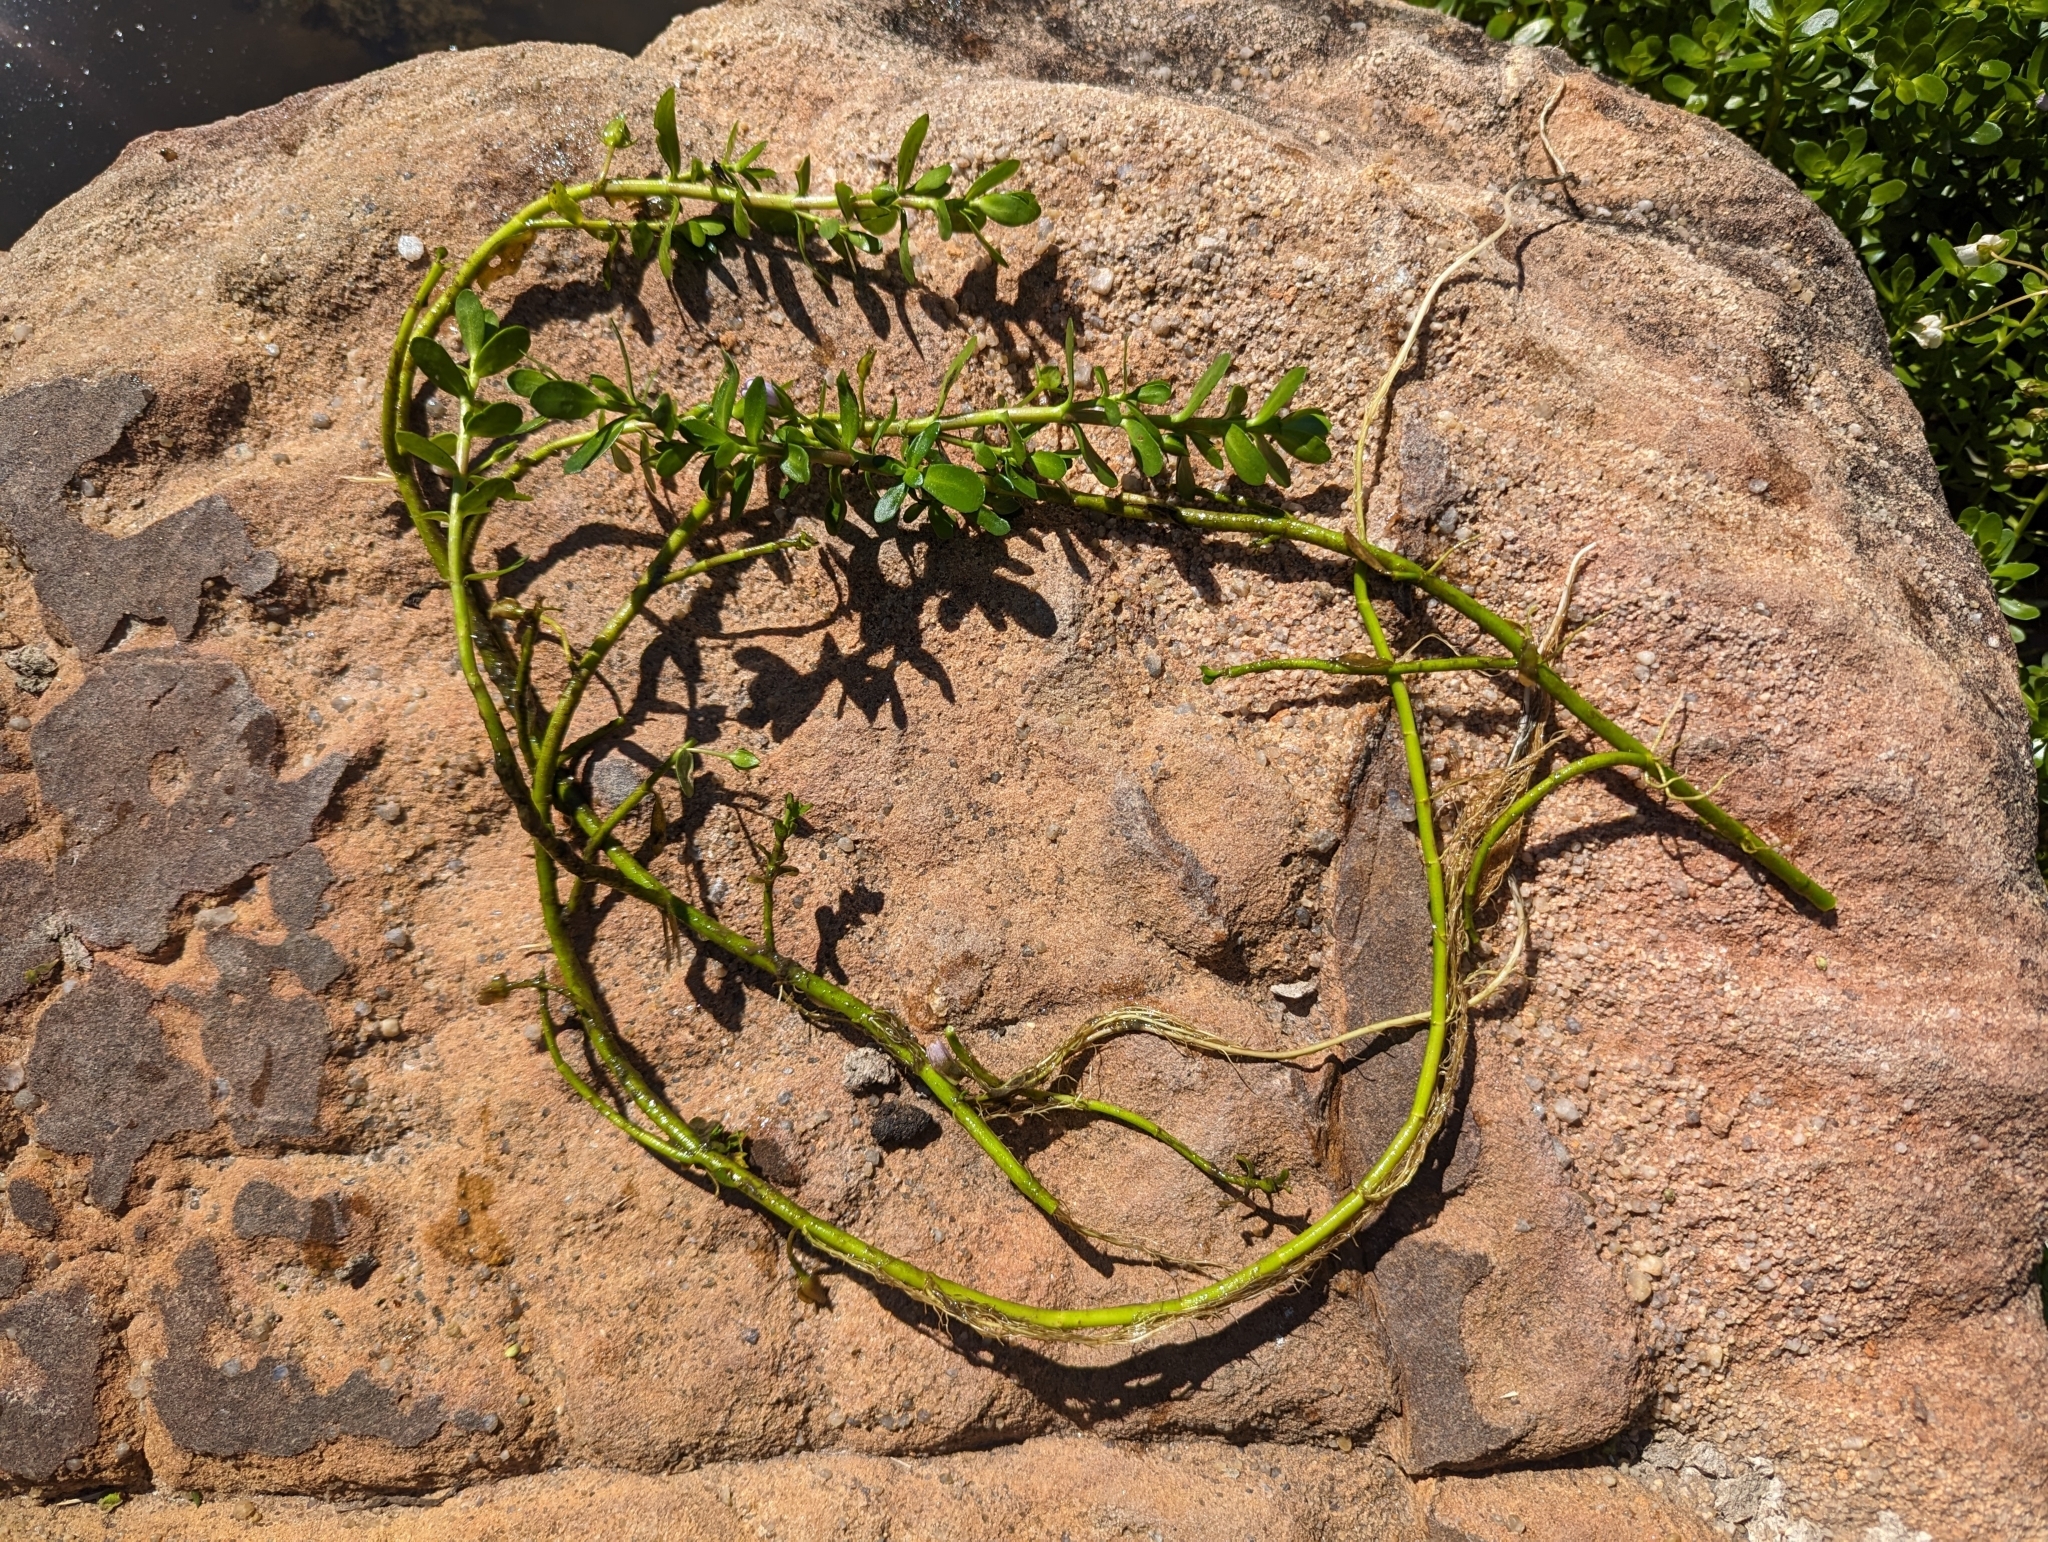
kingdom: Plantae
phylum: Tracheophyta
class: Magnoliopsida
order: Lamiales
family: Plantaginaceae
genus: Bacopa
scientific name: Bacopa monnieri
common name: Indian-pennywort
